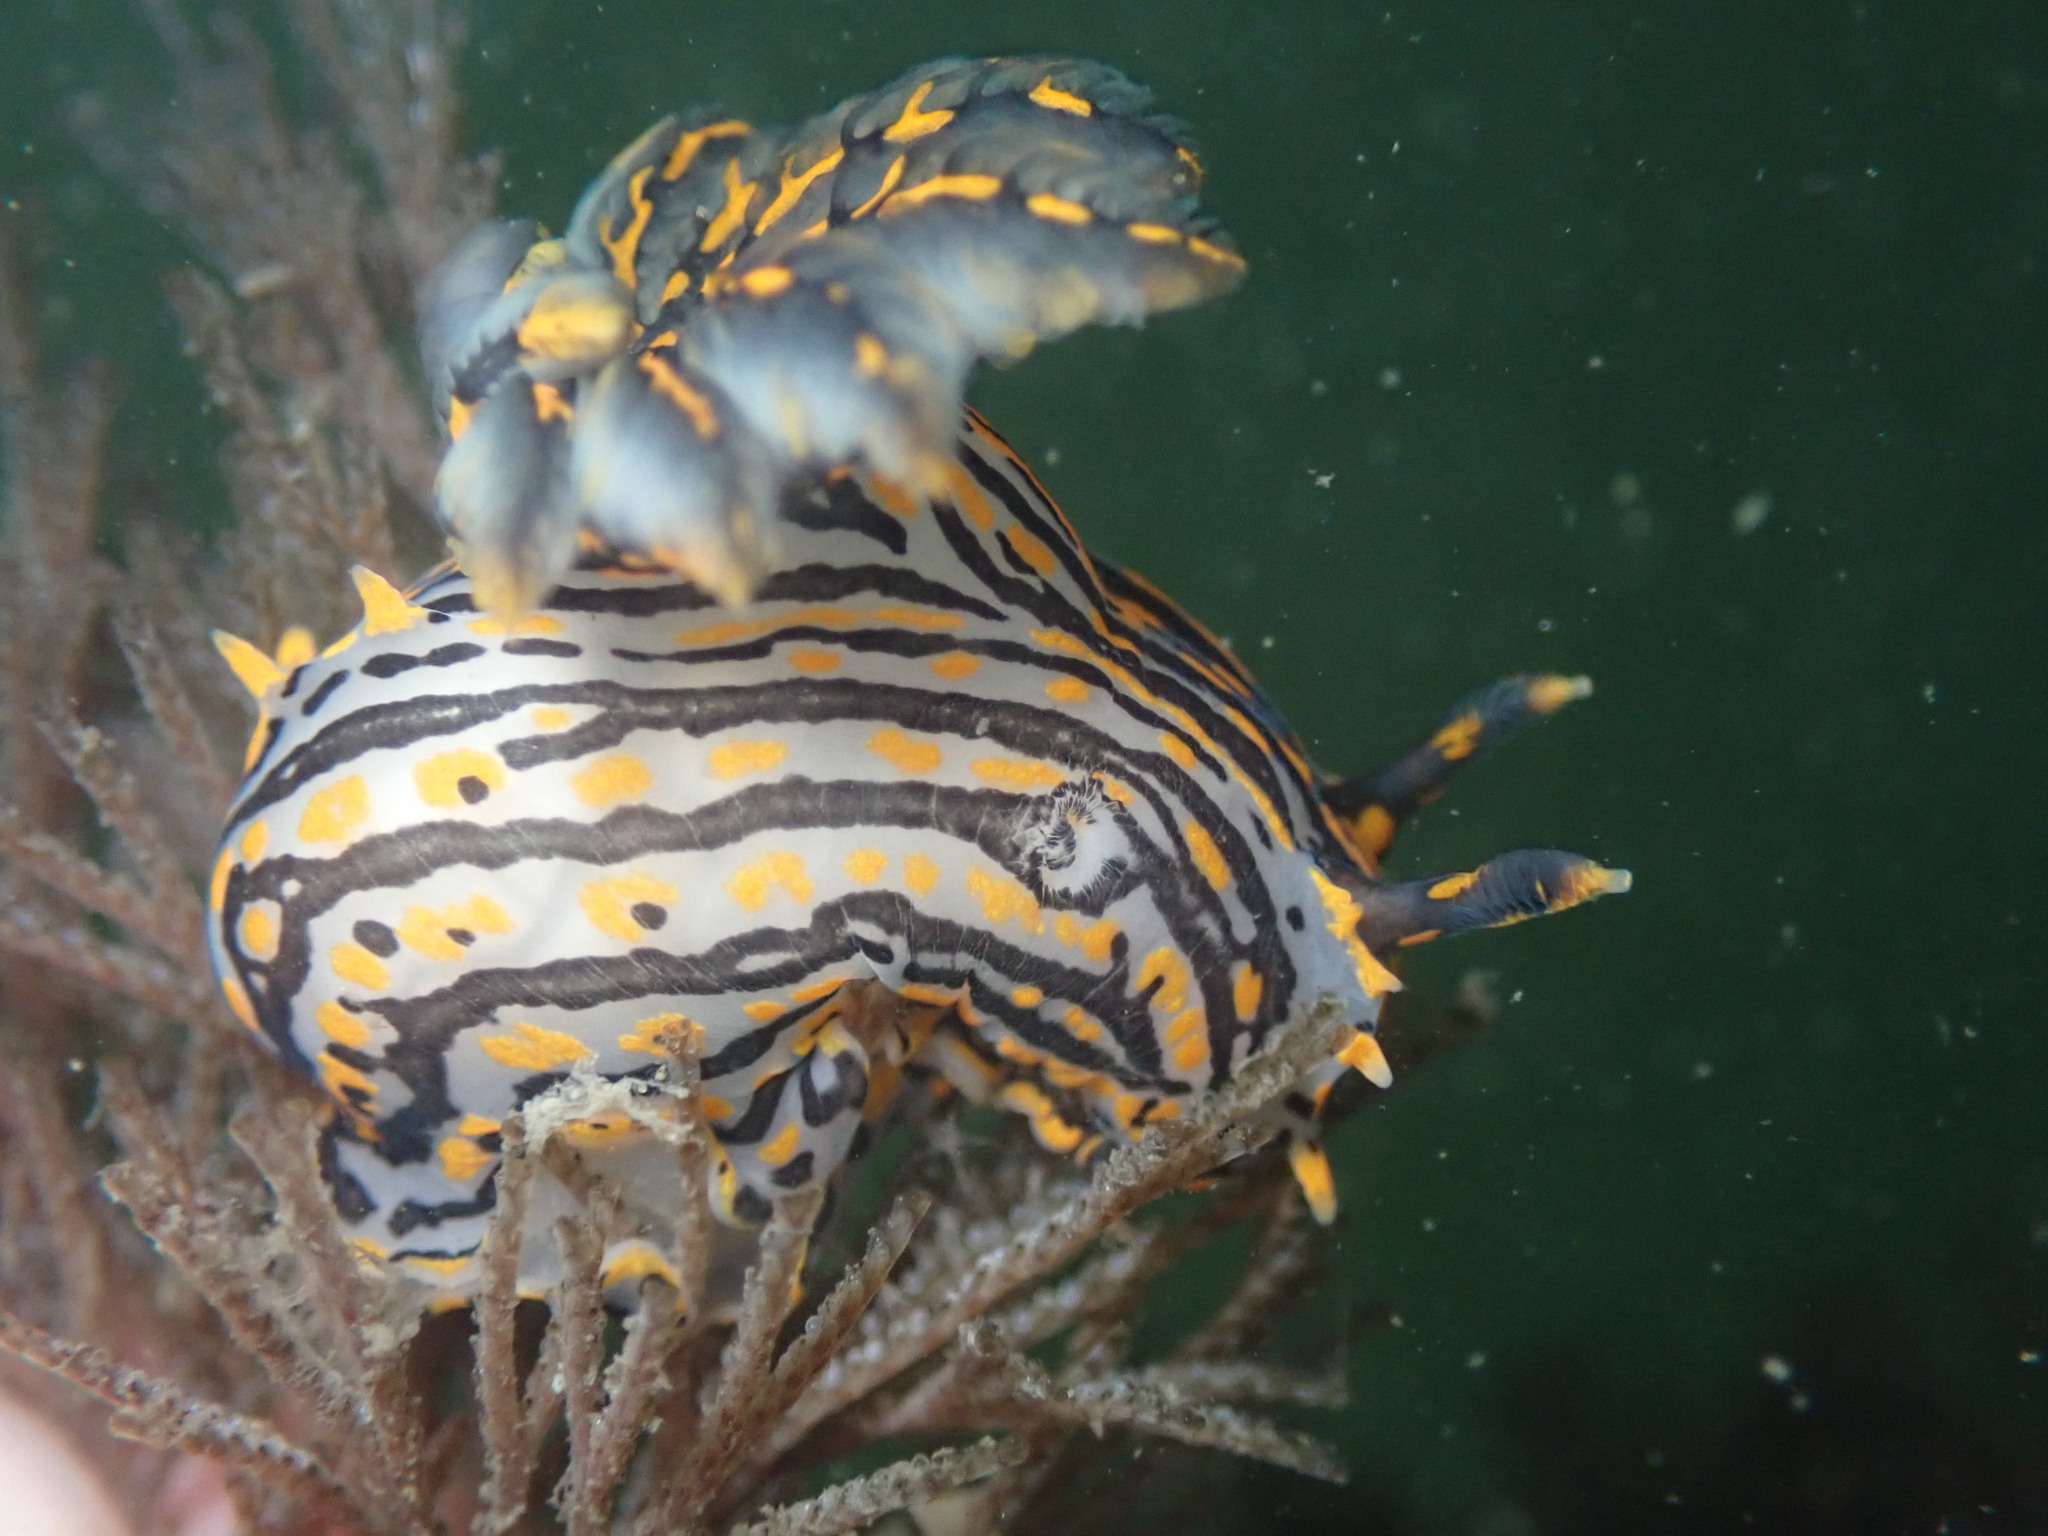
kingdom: Animalia
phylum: Mollusca
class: Gastropoda
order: Nudibranchia
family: Polyceridae
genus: Polycera
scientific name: Polycera atra
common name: Orange-spike polycera
